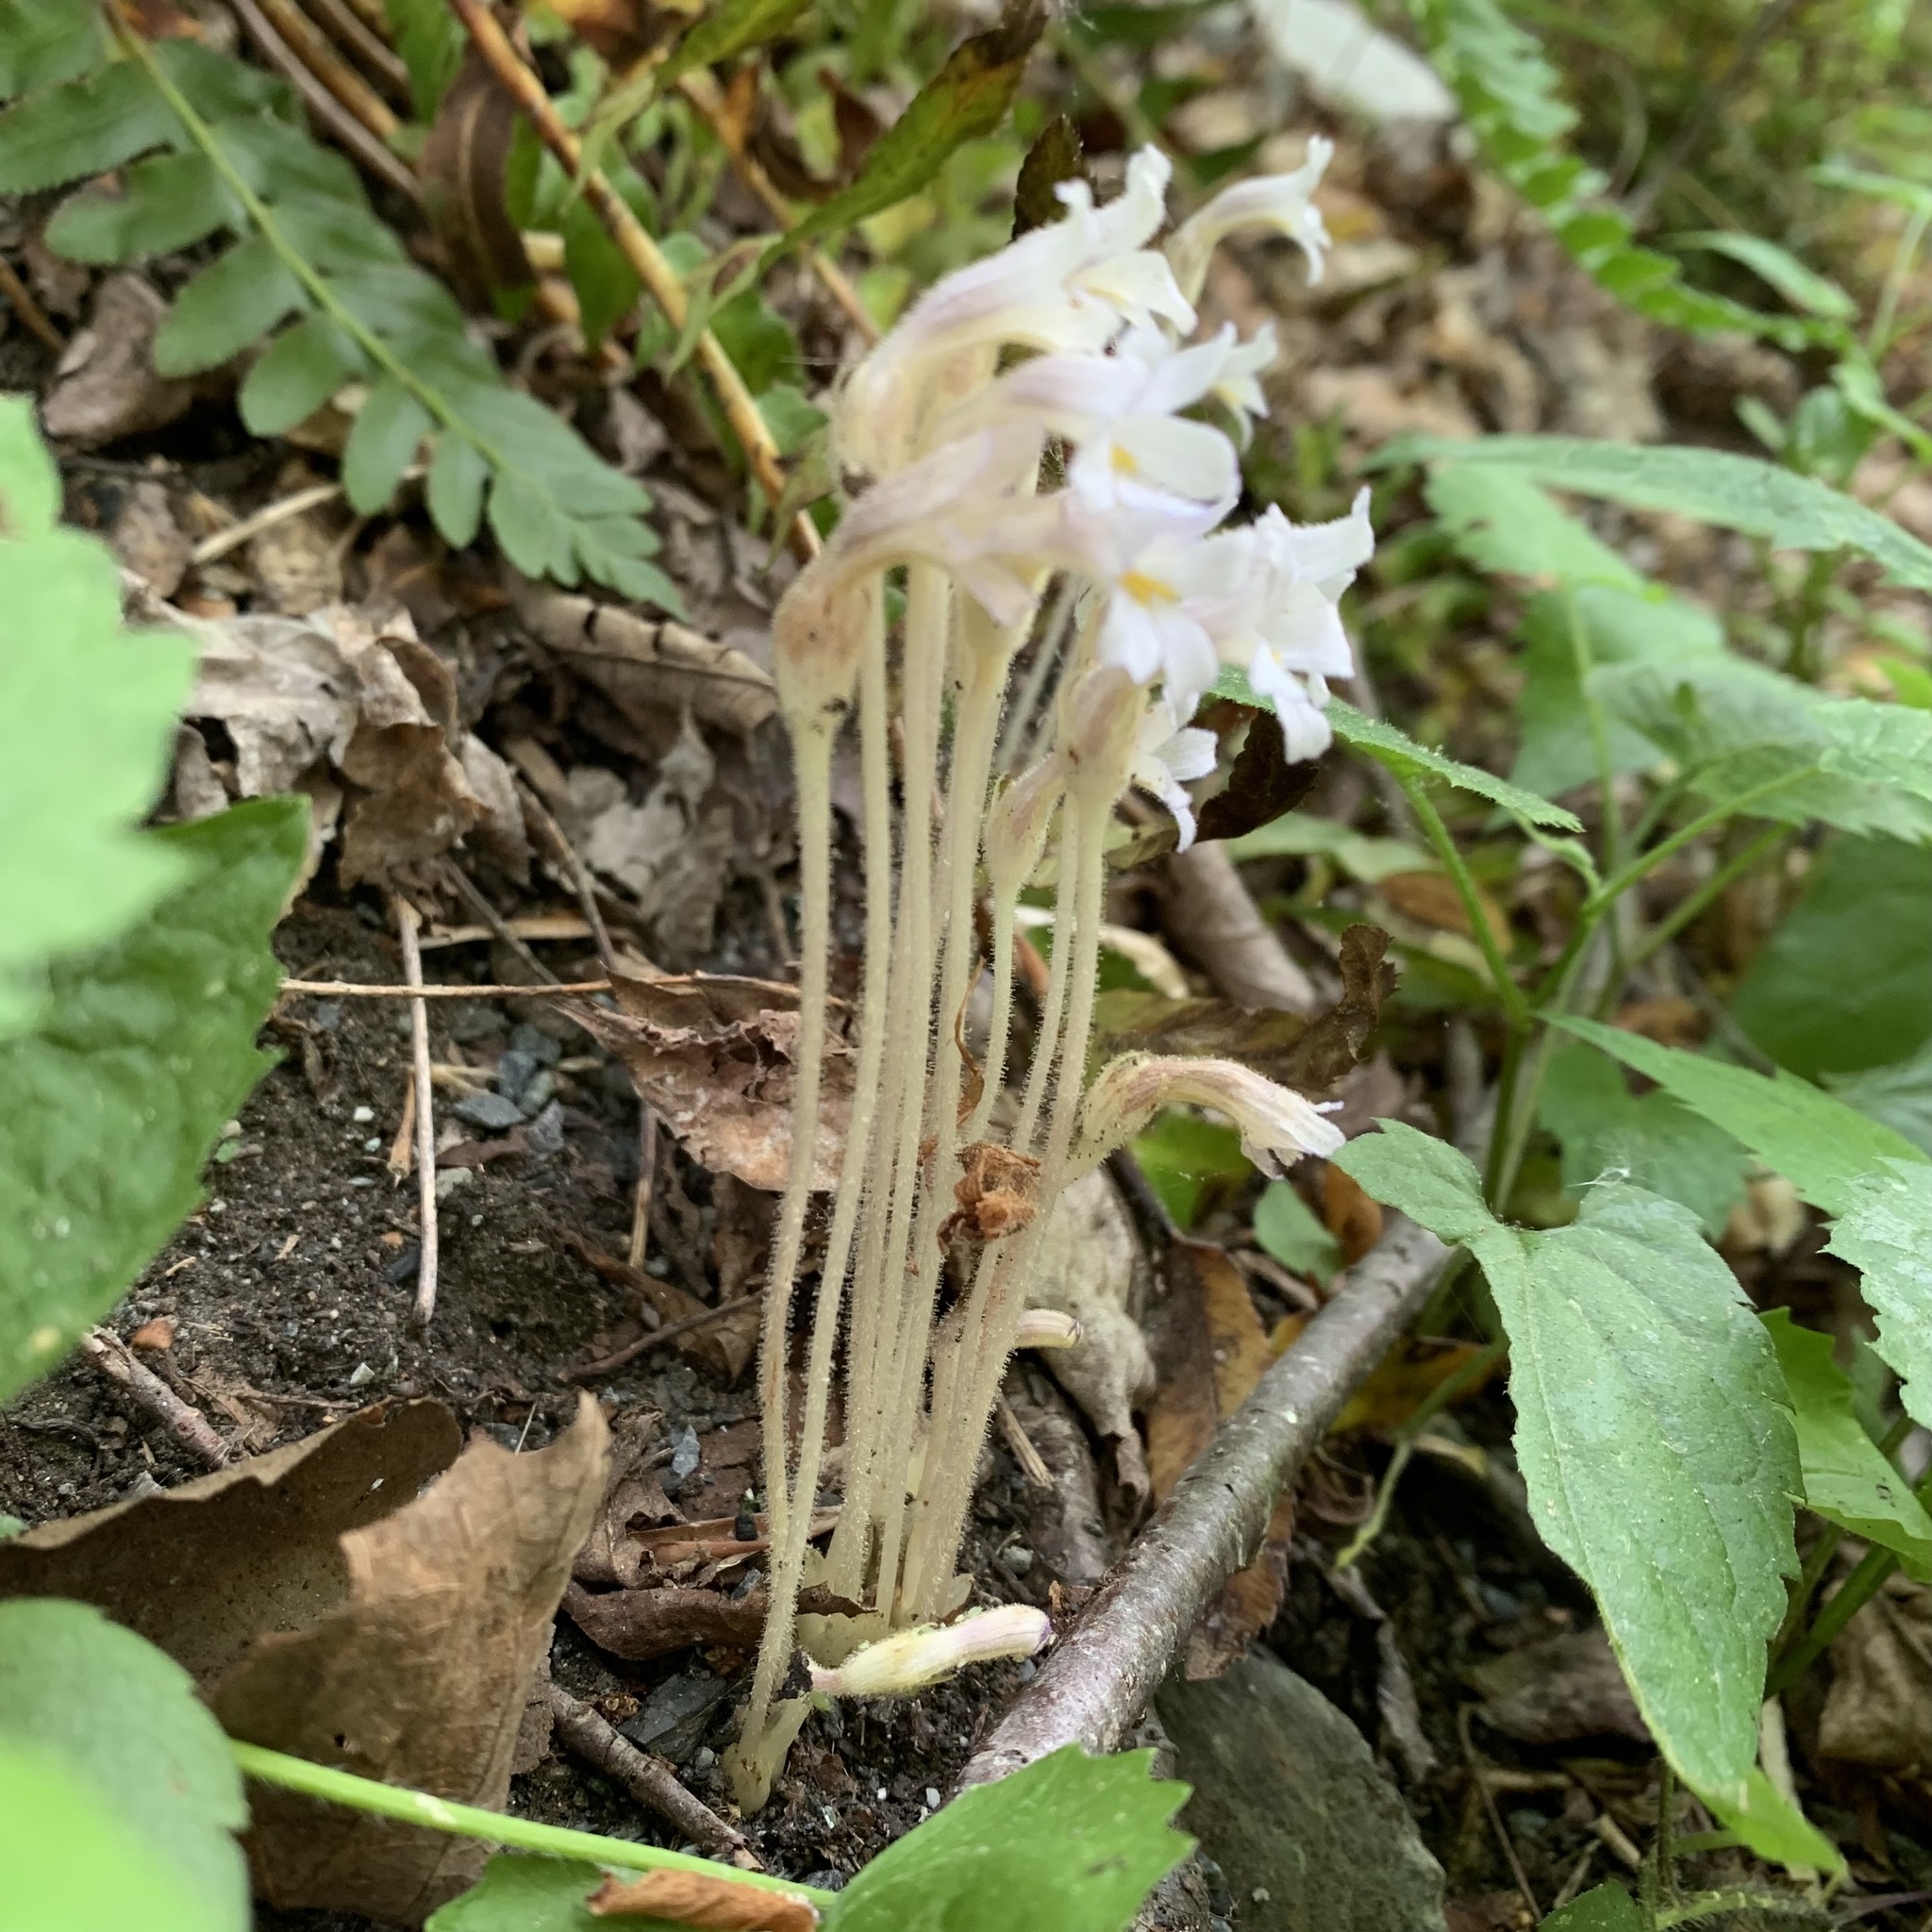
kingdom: Plantae
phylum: Tracheophyta
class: Magnoliopsida
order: Lamiales
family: Orobanchaceae
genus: Aphyllon
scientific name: Aphyllon uniflorum
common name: One-flowered broomrape
